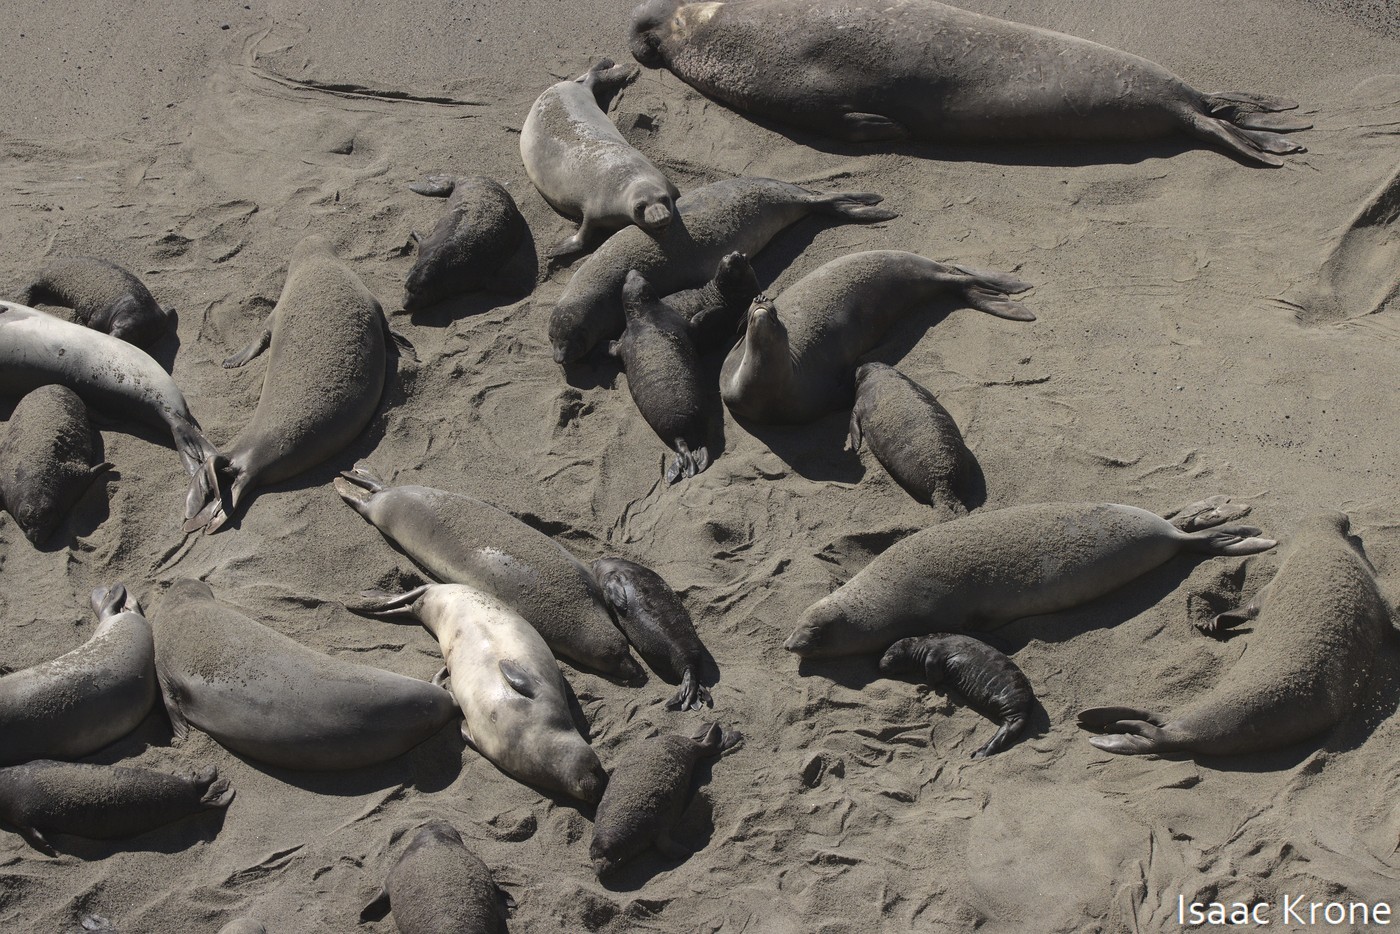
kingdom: Animalia
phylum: Chordata
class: Mammalia
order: Carnivora
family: Phocidae
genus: Mirounga
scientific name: Mirounga angustirostris
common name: Northern elephant seal
